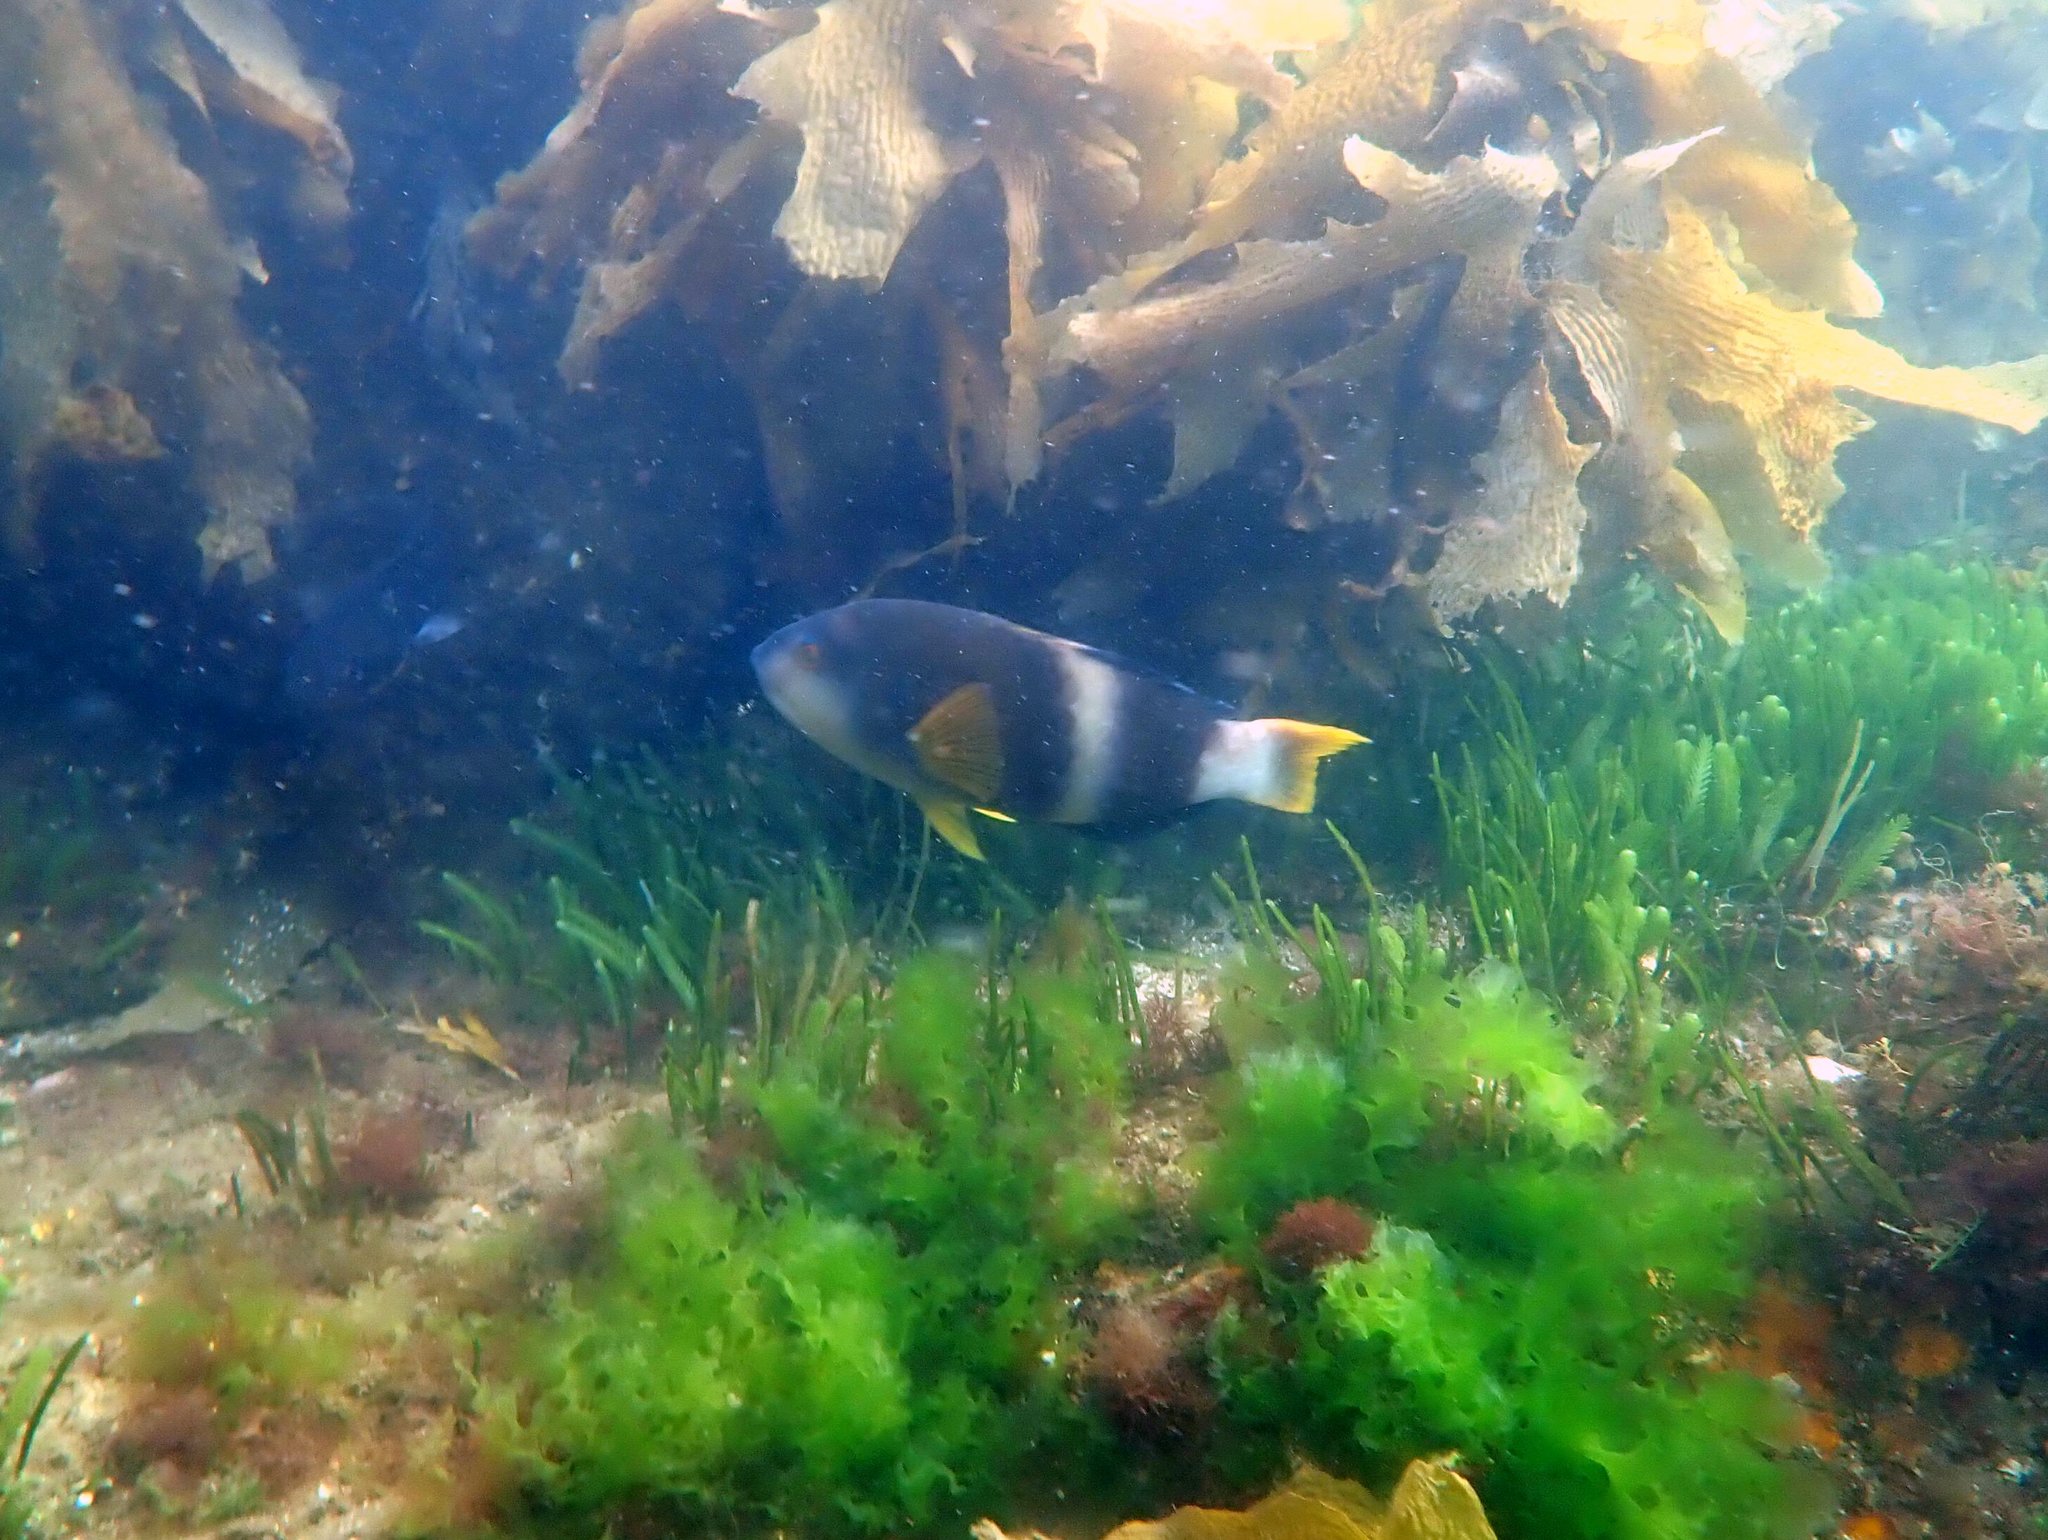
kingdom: Animalia
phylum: Chordata
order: Perciformes
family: Labridae
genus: Notolabrus
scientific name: Notolabrus tetricus
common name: Blue-throated parrotfish
